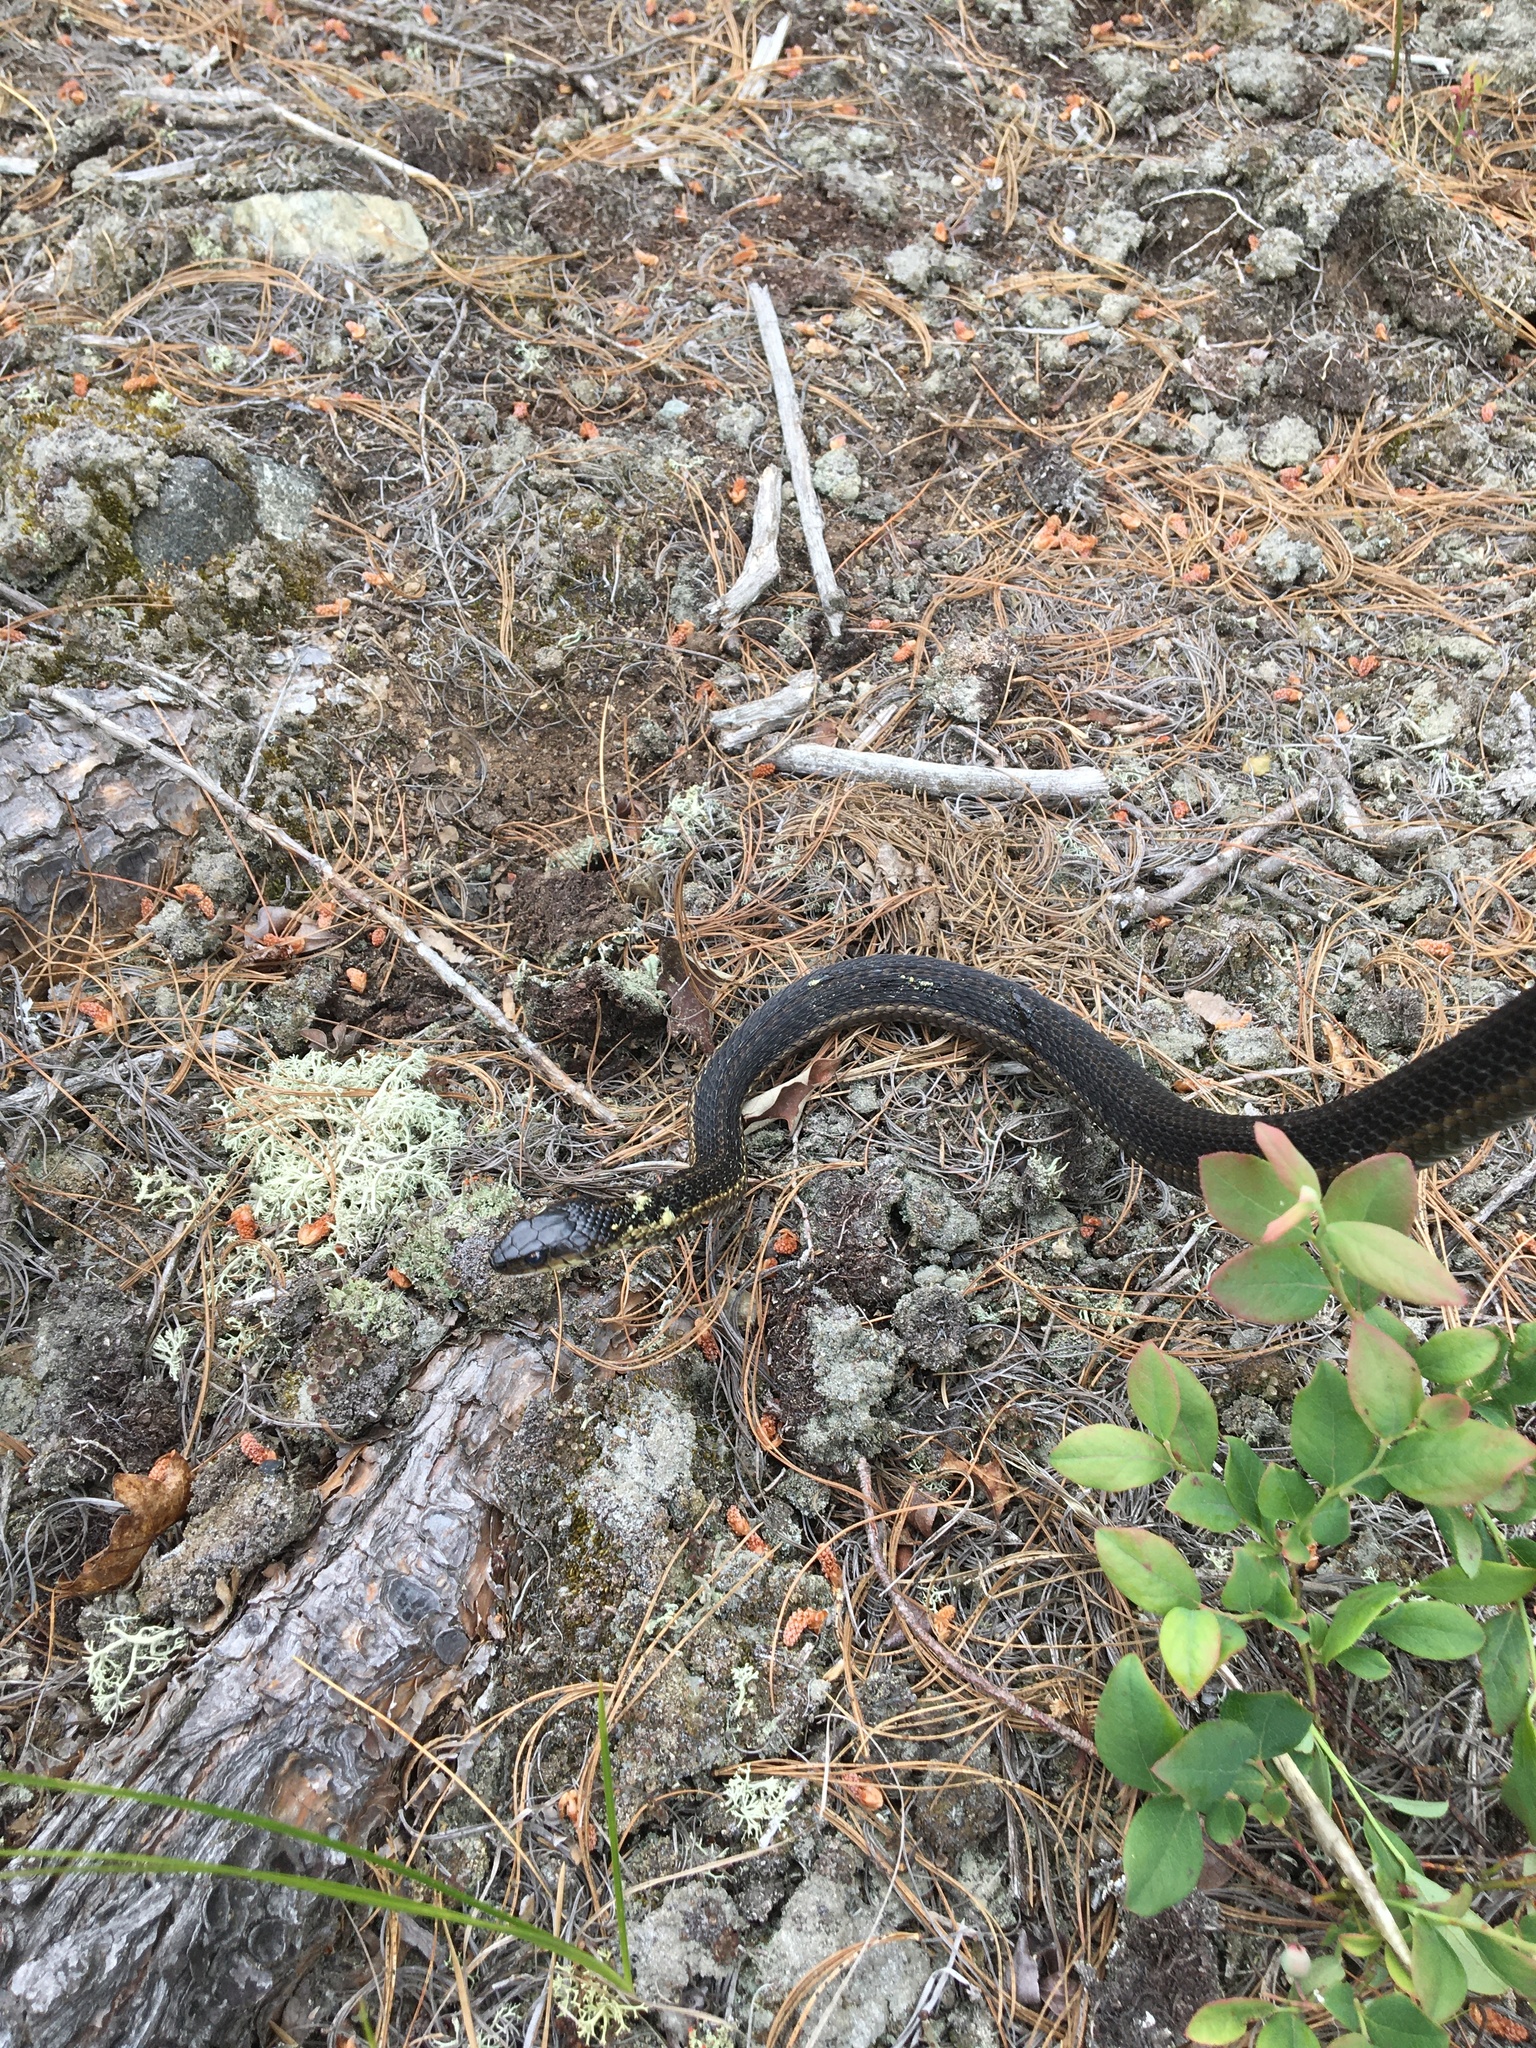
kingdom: Animalia
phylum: Chordata
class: Squamata
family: Colubridae
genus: Thamnophis
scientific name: Thamnophis sirtalis
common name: Common garter snake
